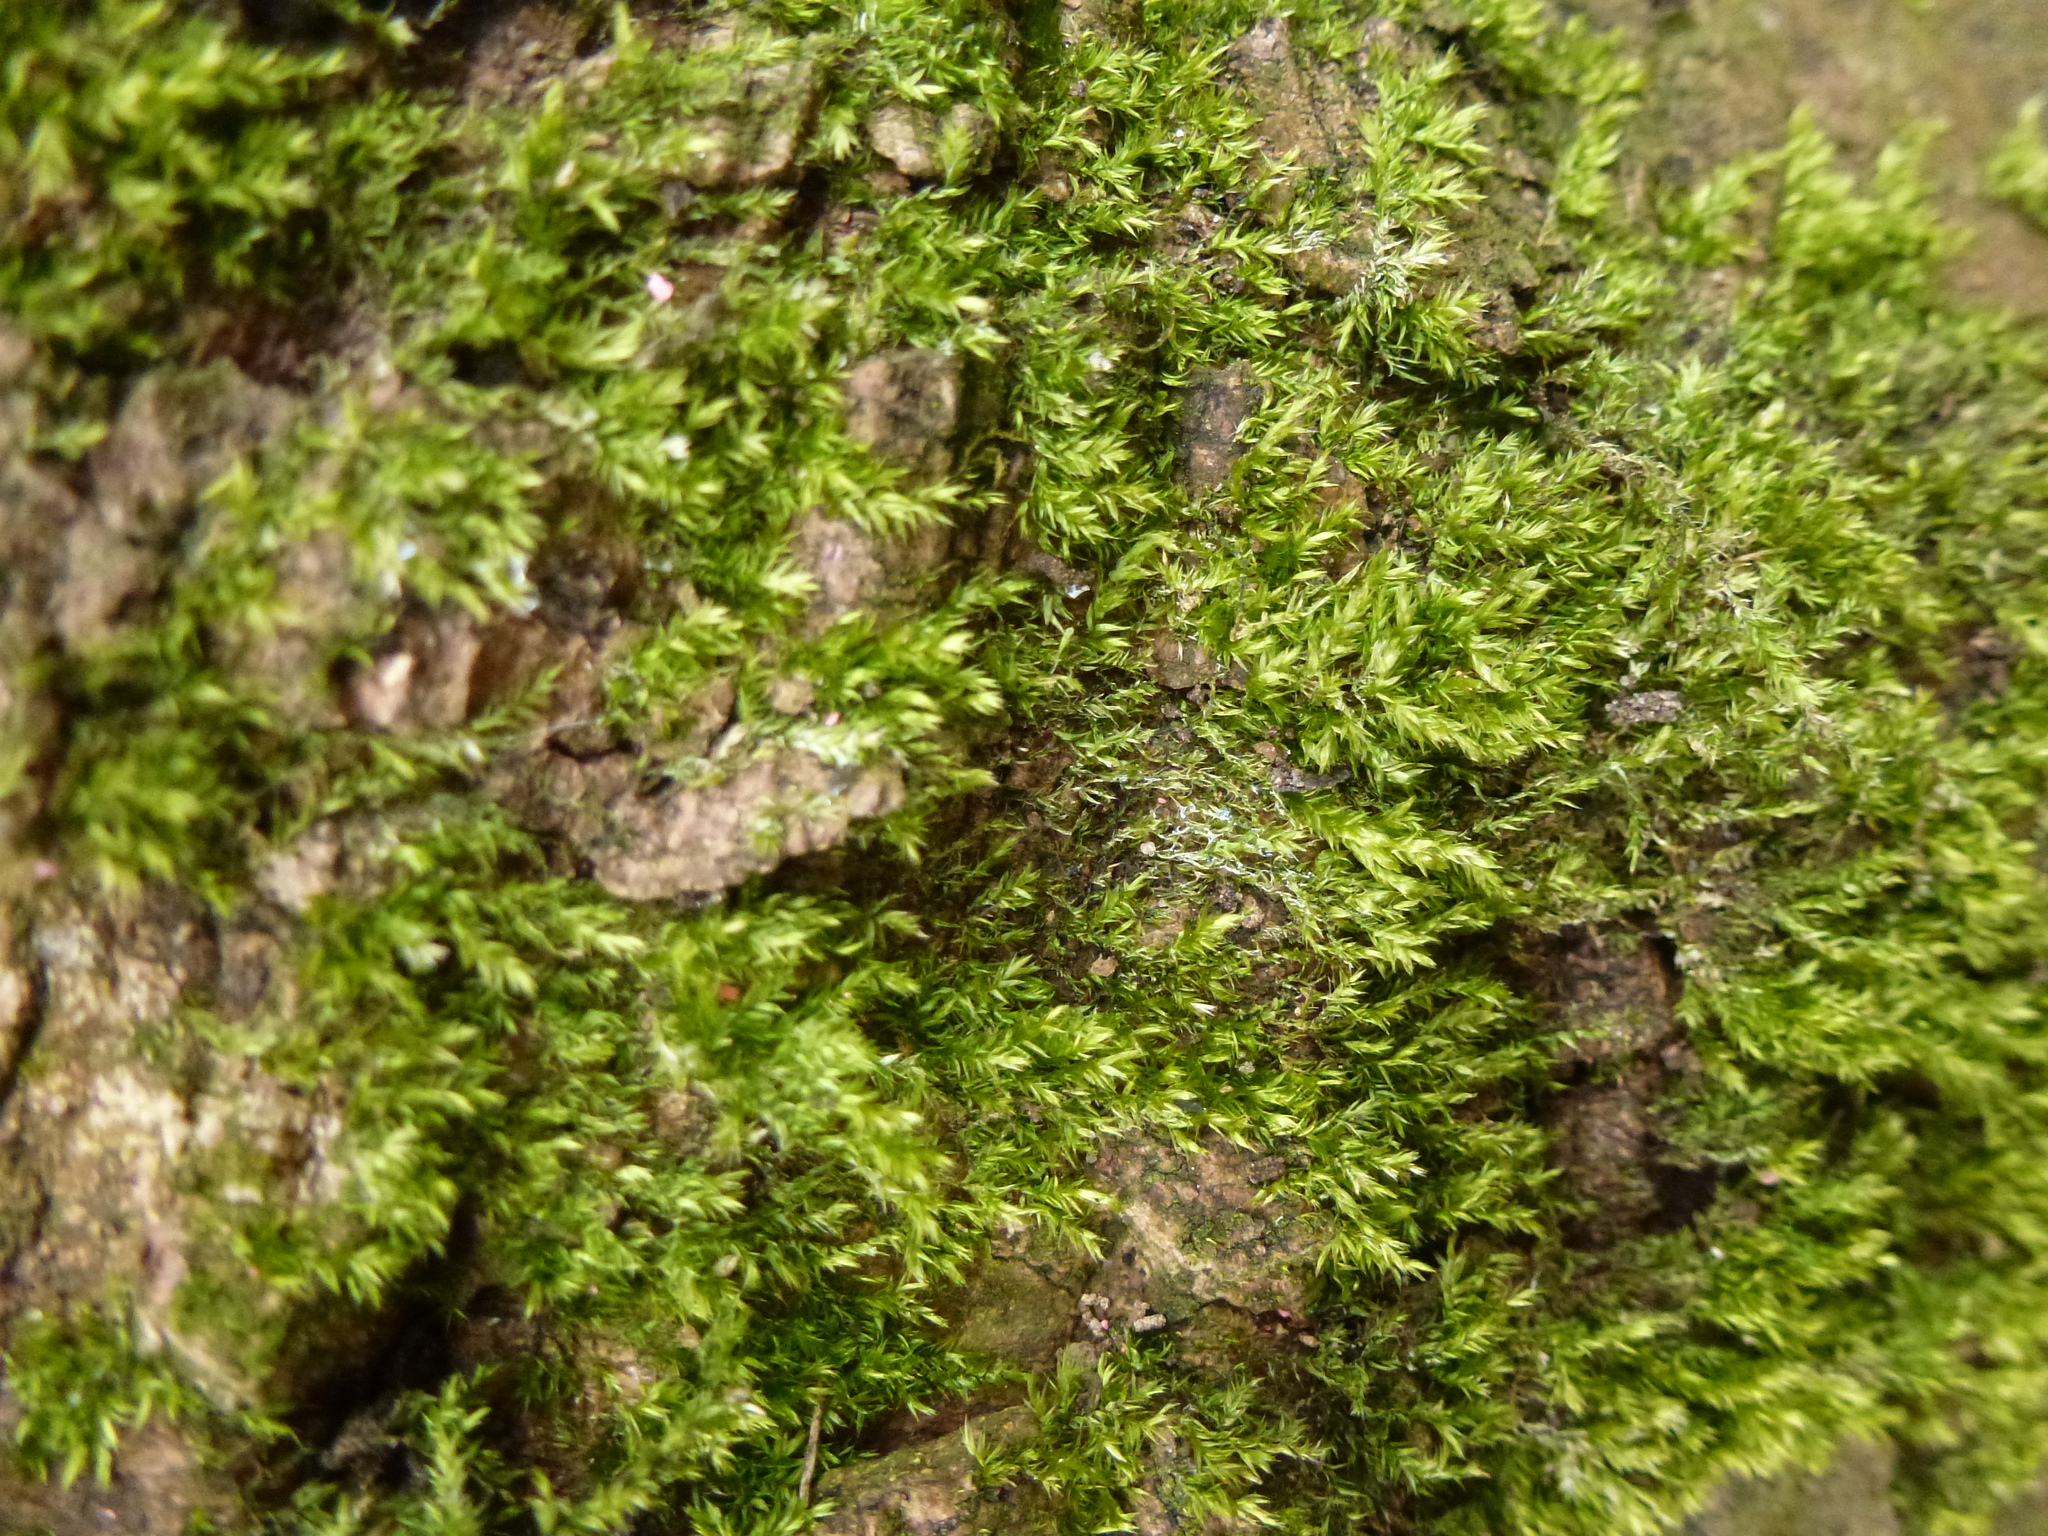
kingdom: Plantae
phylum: Bryophyta
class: Bryopsida
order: Hypnales
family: Hypnaceae
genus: Hypnum
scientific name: Hypnum resupinatum
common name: Supine plait-moss
